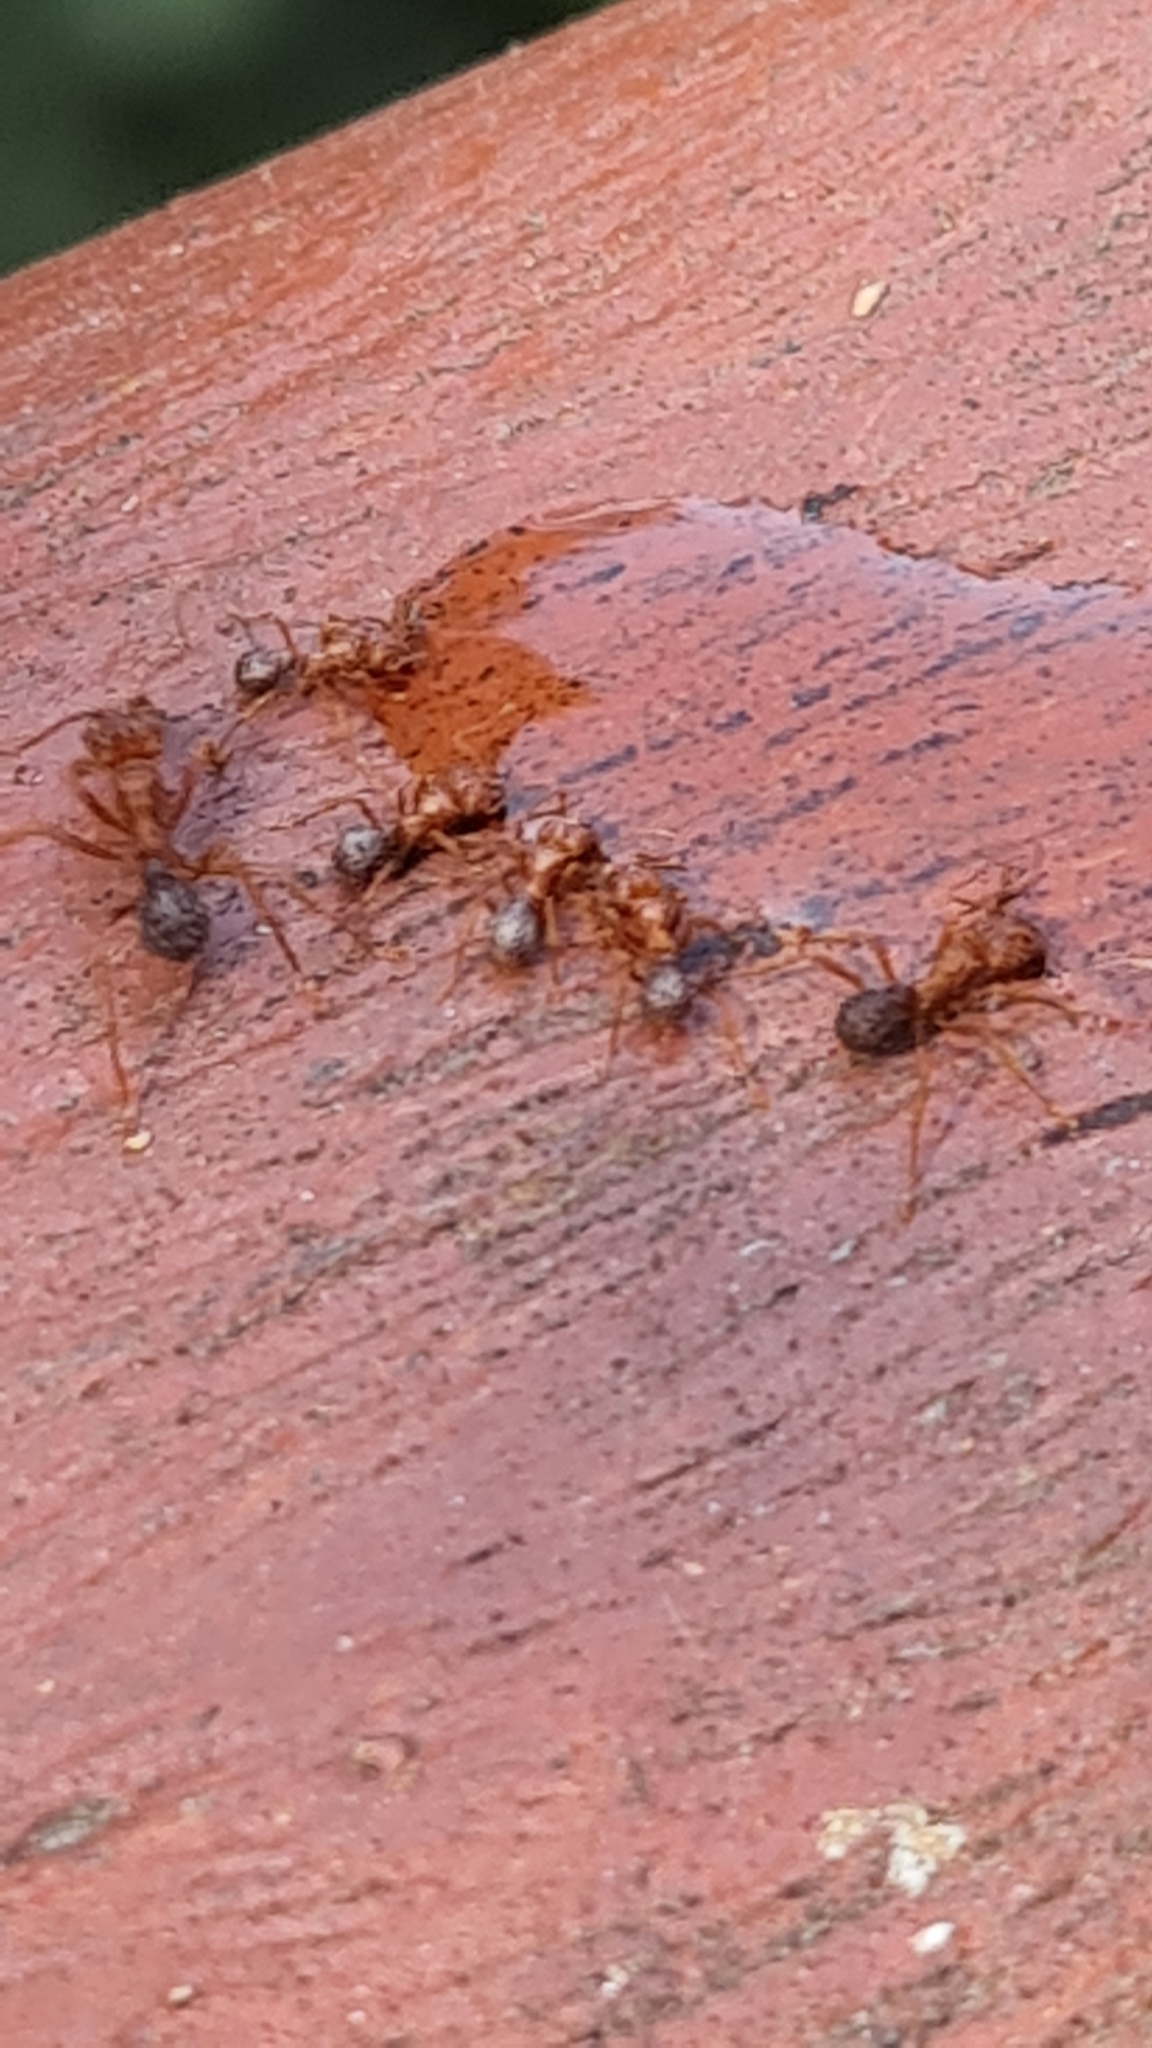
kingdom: Animalia
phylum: Arthropoda
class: Insecta
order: Hymenoptera
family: Formicidae
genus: Acromyrmex
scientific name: Acromyrmex coronatus
